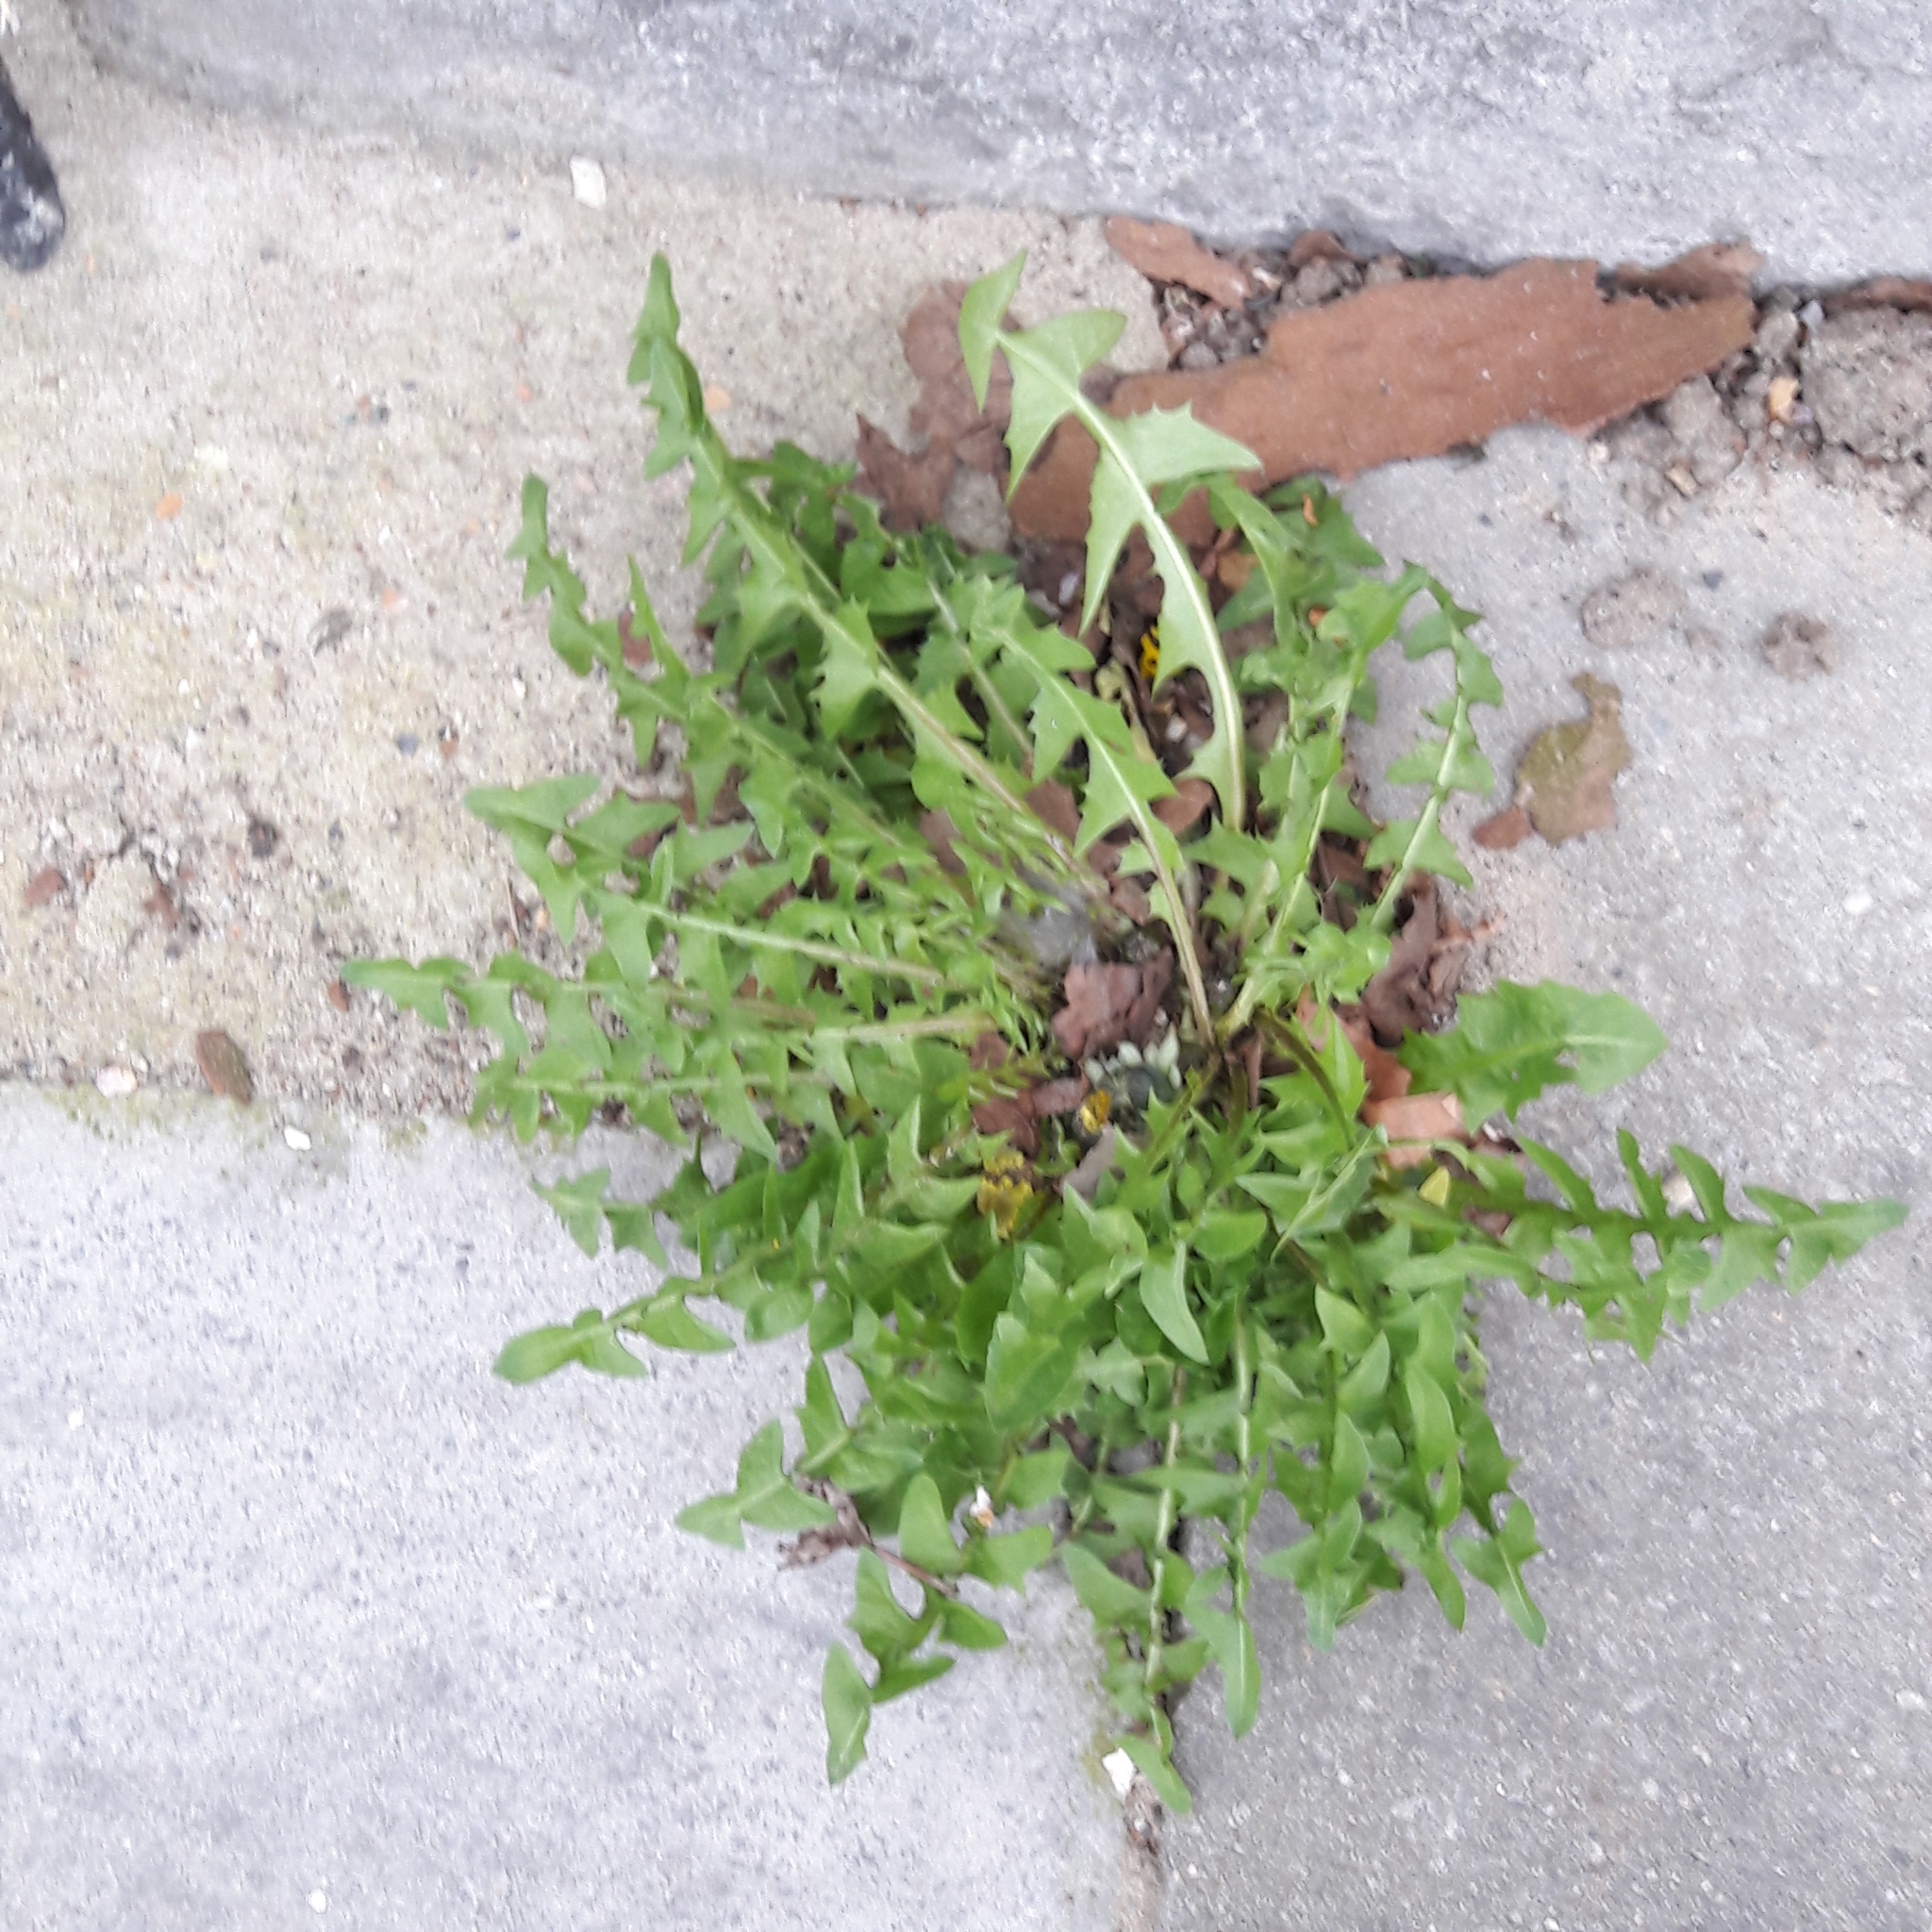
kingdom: Plantae
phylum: Tracheophyta
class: Magnoliopsida
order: Asterales
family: Asteraceae
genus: Taraxacum
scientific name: Taraxacum officinale
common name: Common dandelion
